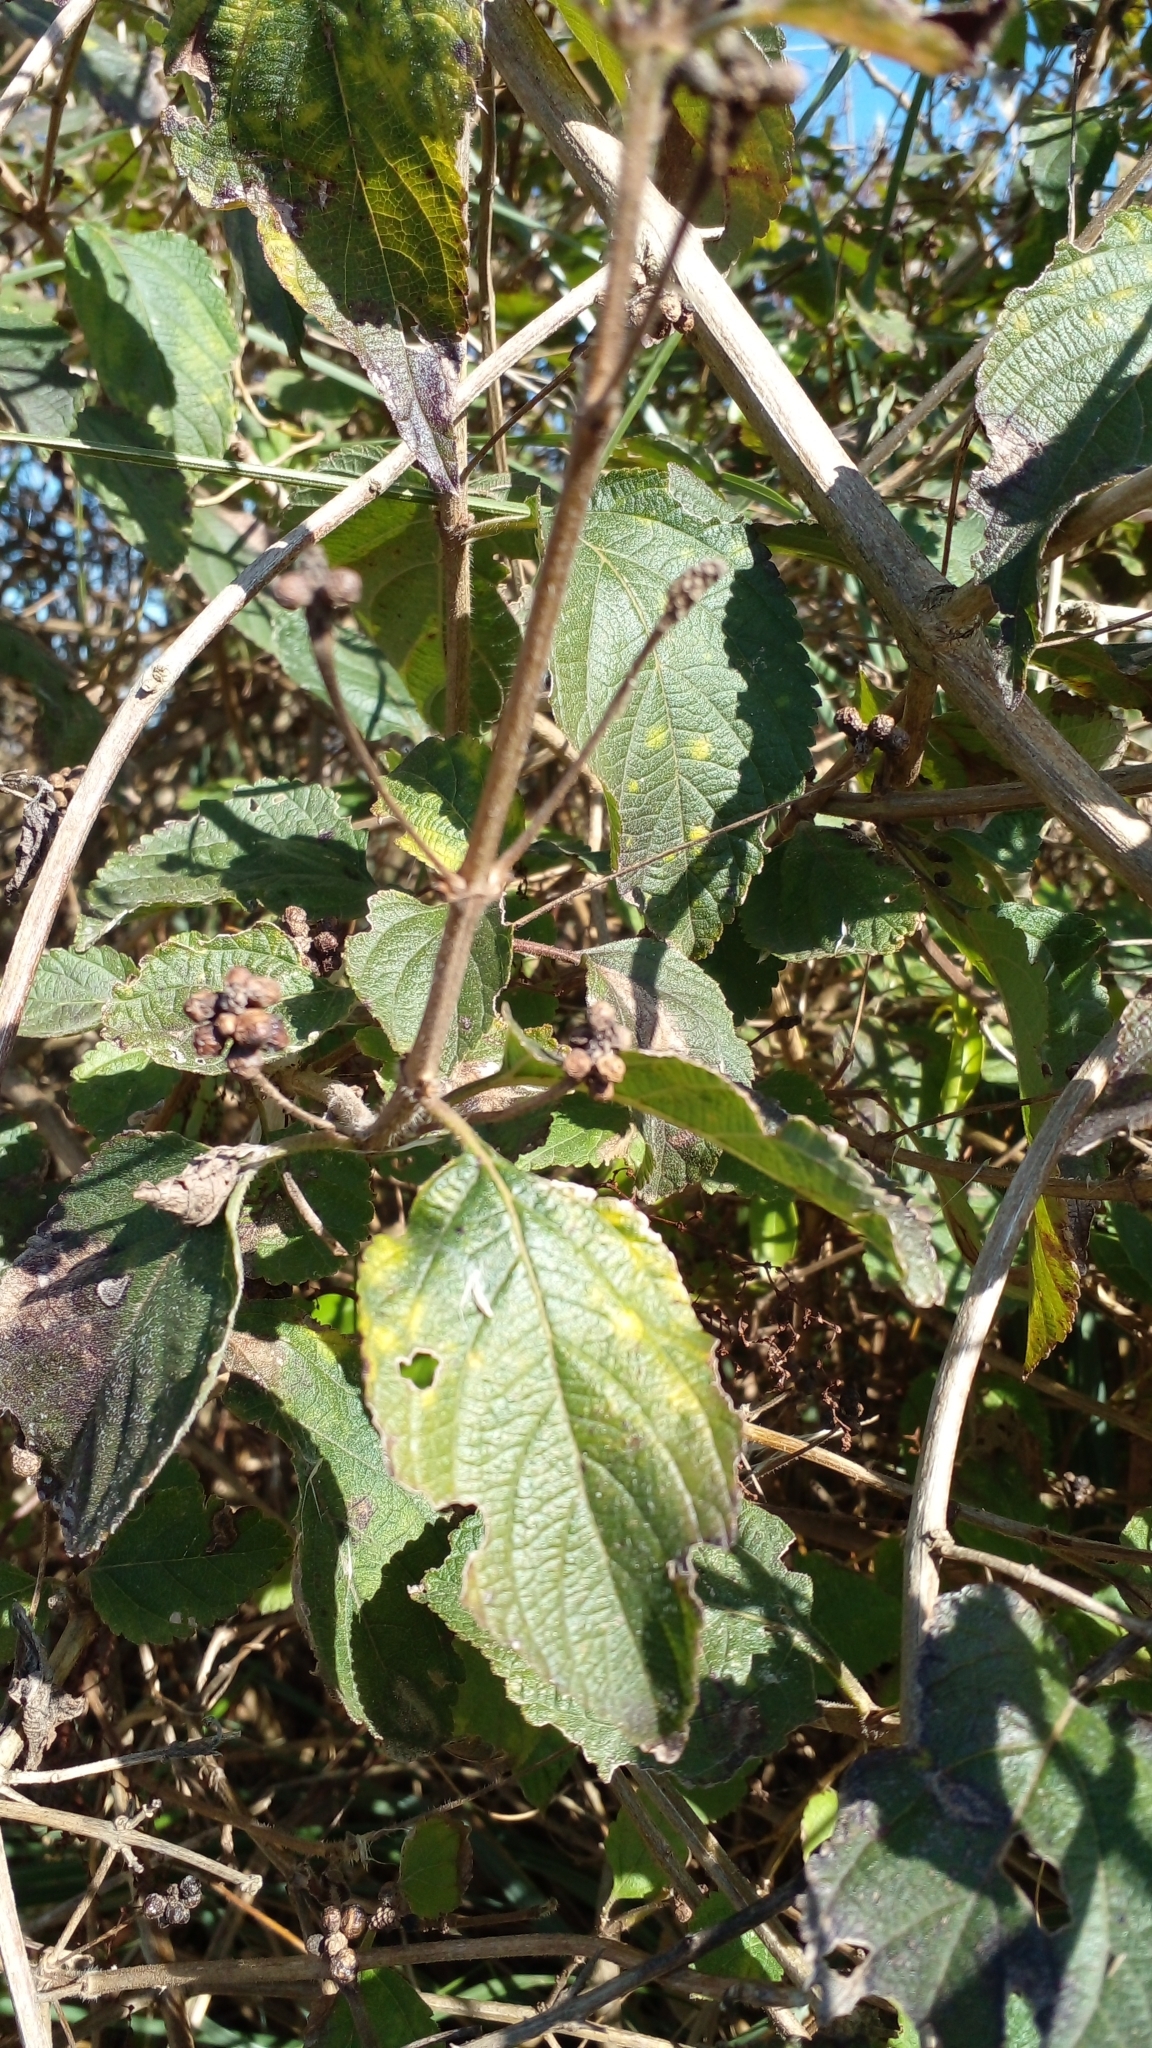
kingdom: Plantae
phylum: Tracheophyta
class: Magnoliopsida
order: Lamiales
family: Verbenaceae
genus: Lantana
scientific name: Lantana camara
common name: Lantana
